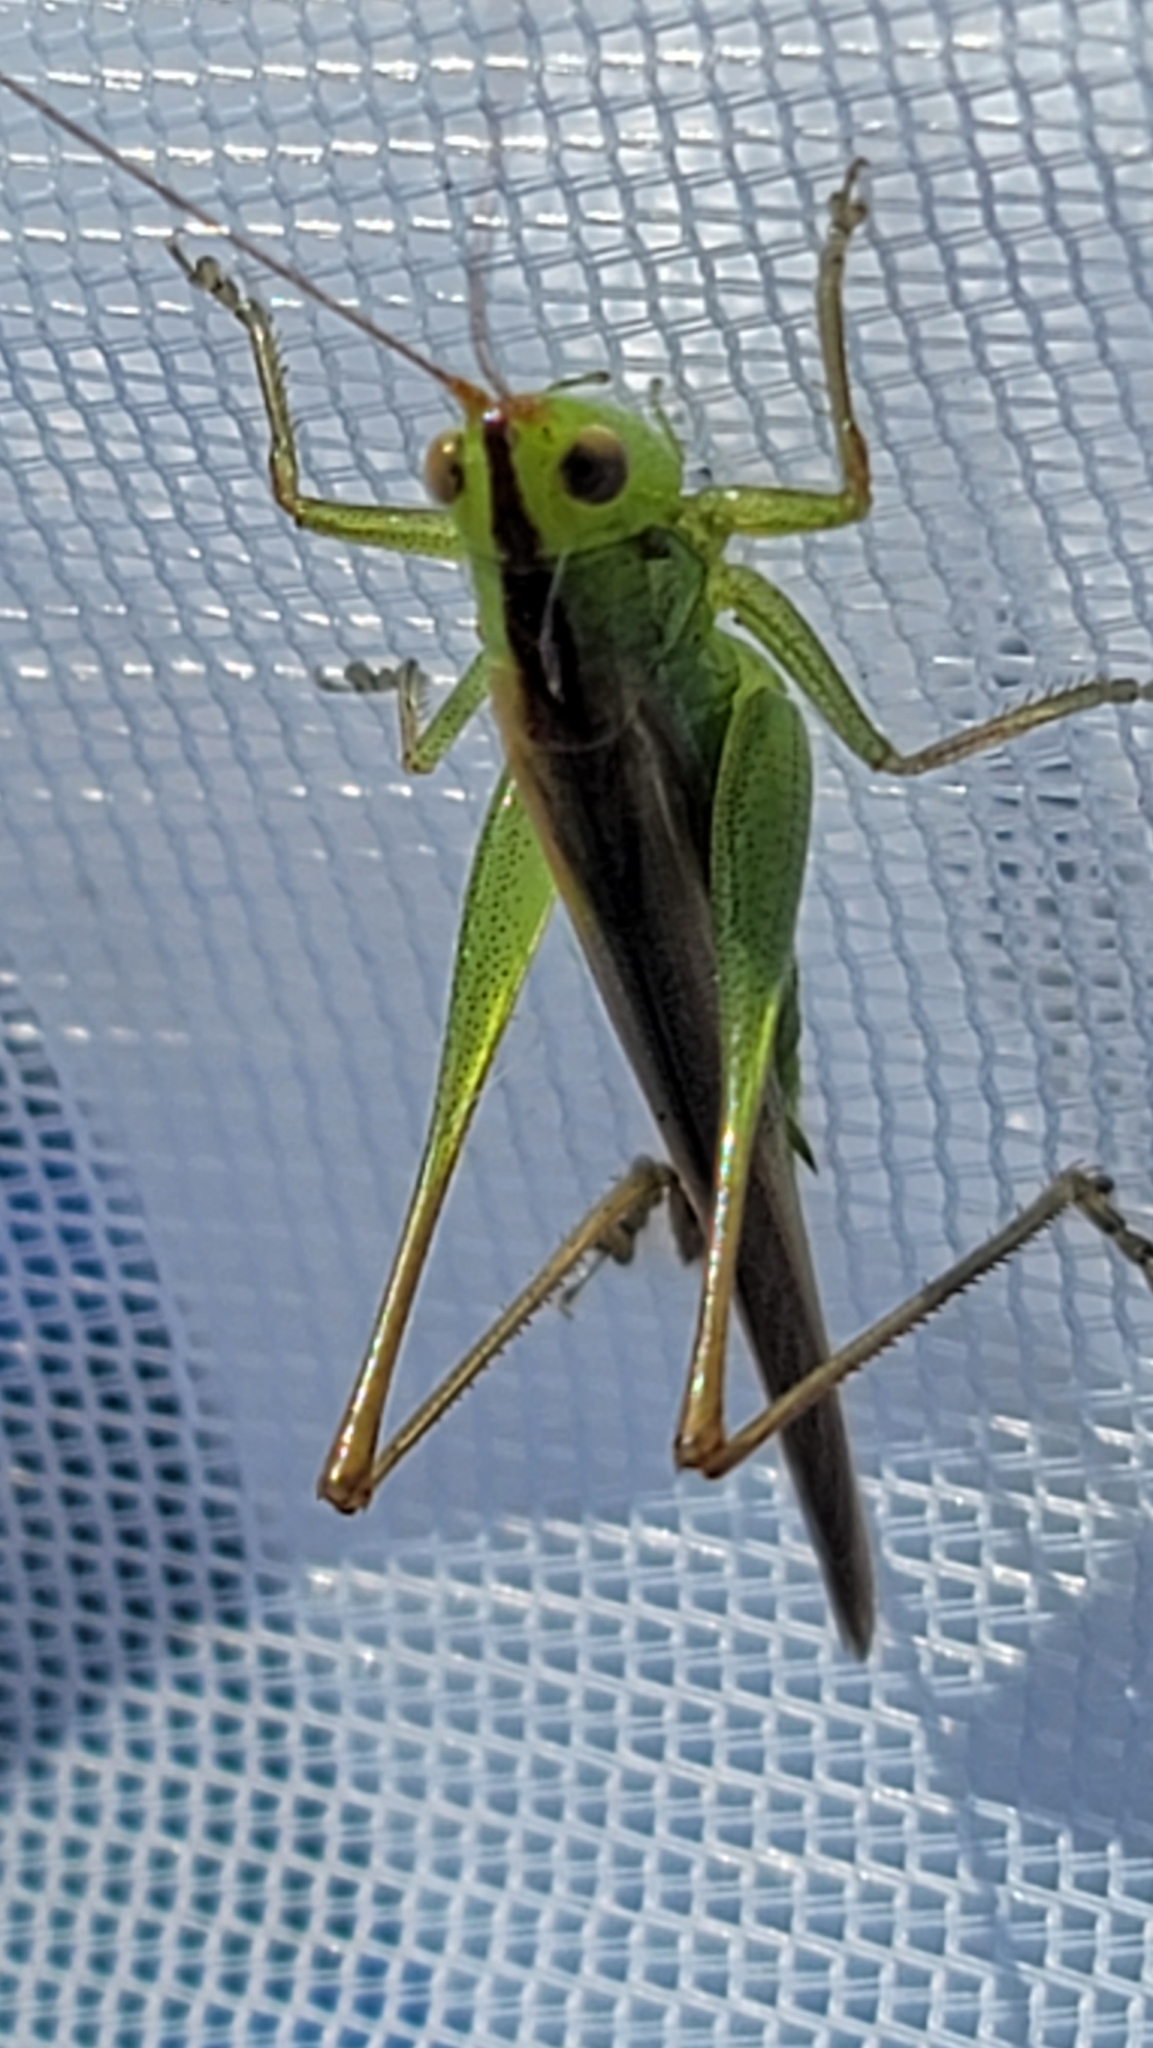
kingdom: Animalia
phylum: Arthropoda
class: Insecta
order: Orthoptera
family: Tettigoniidae
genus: Orchelimum
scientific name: Orchelimum minor
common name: Lesser pine meadow katydid
